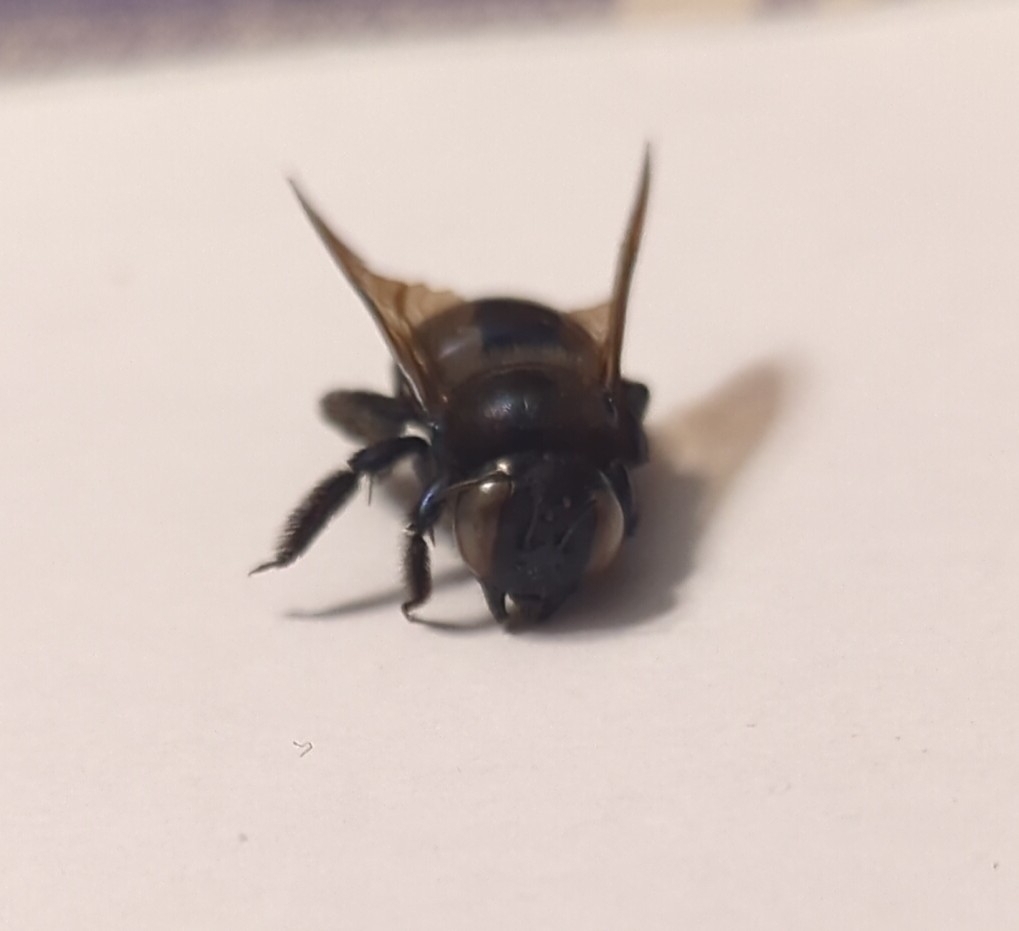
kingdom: Animalia
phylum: Arthropoda
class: Insecta
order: Hymenoptera
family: Apidae
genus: Xylocopa
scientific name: Xylocopa micans
